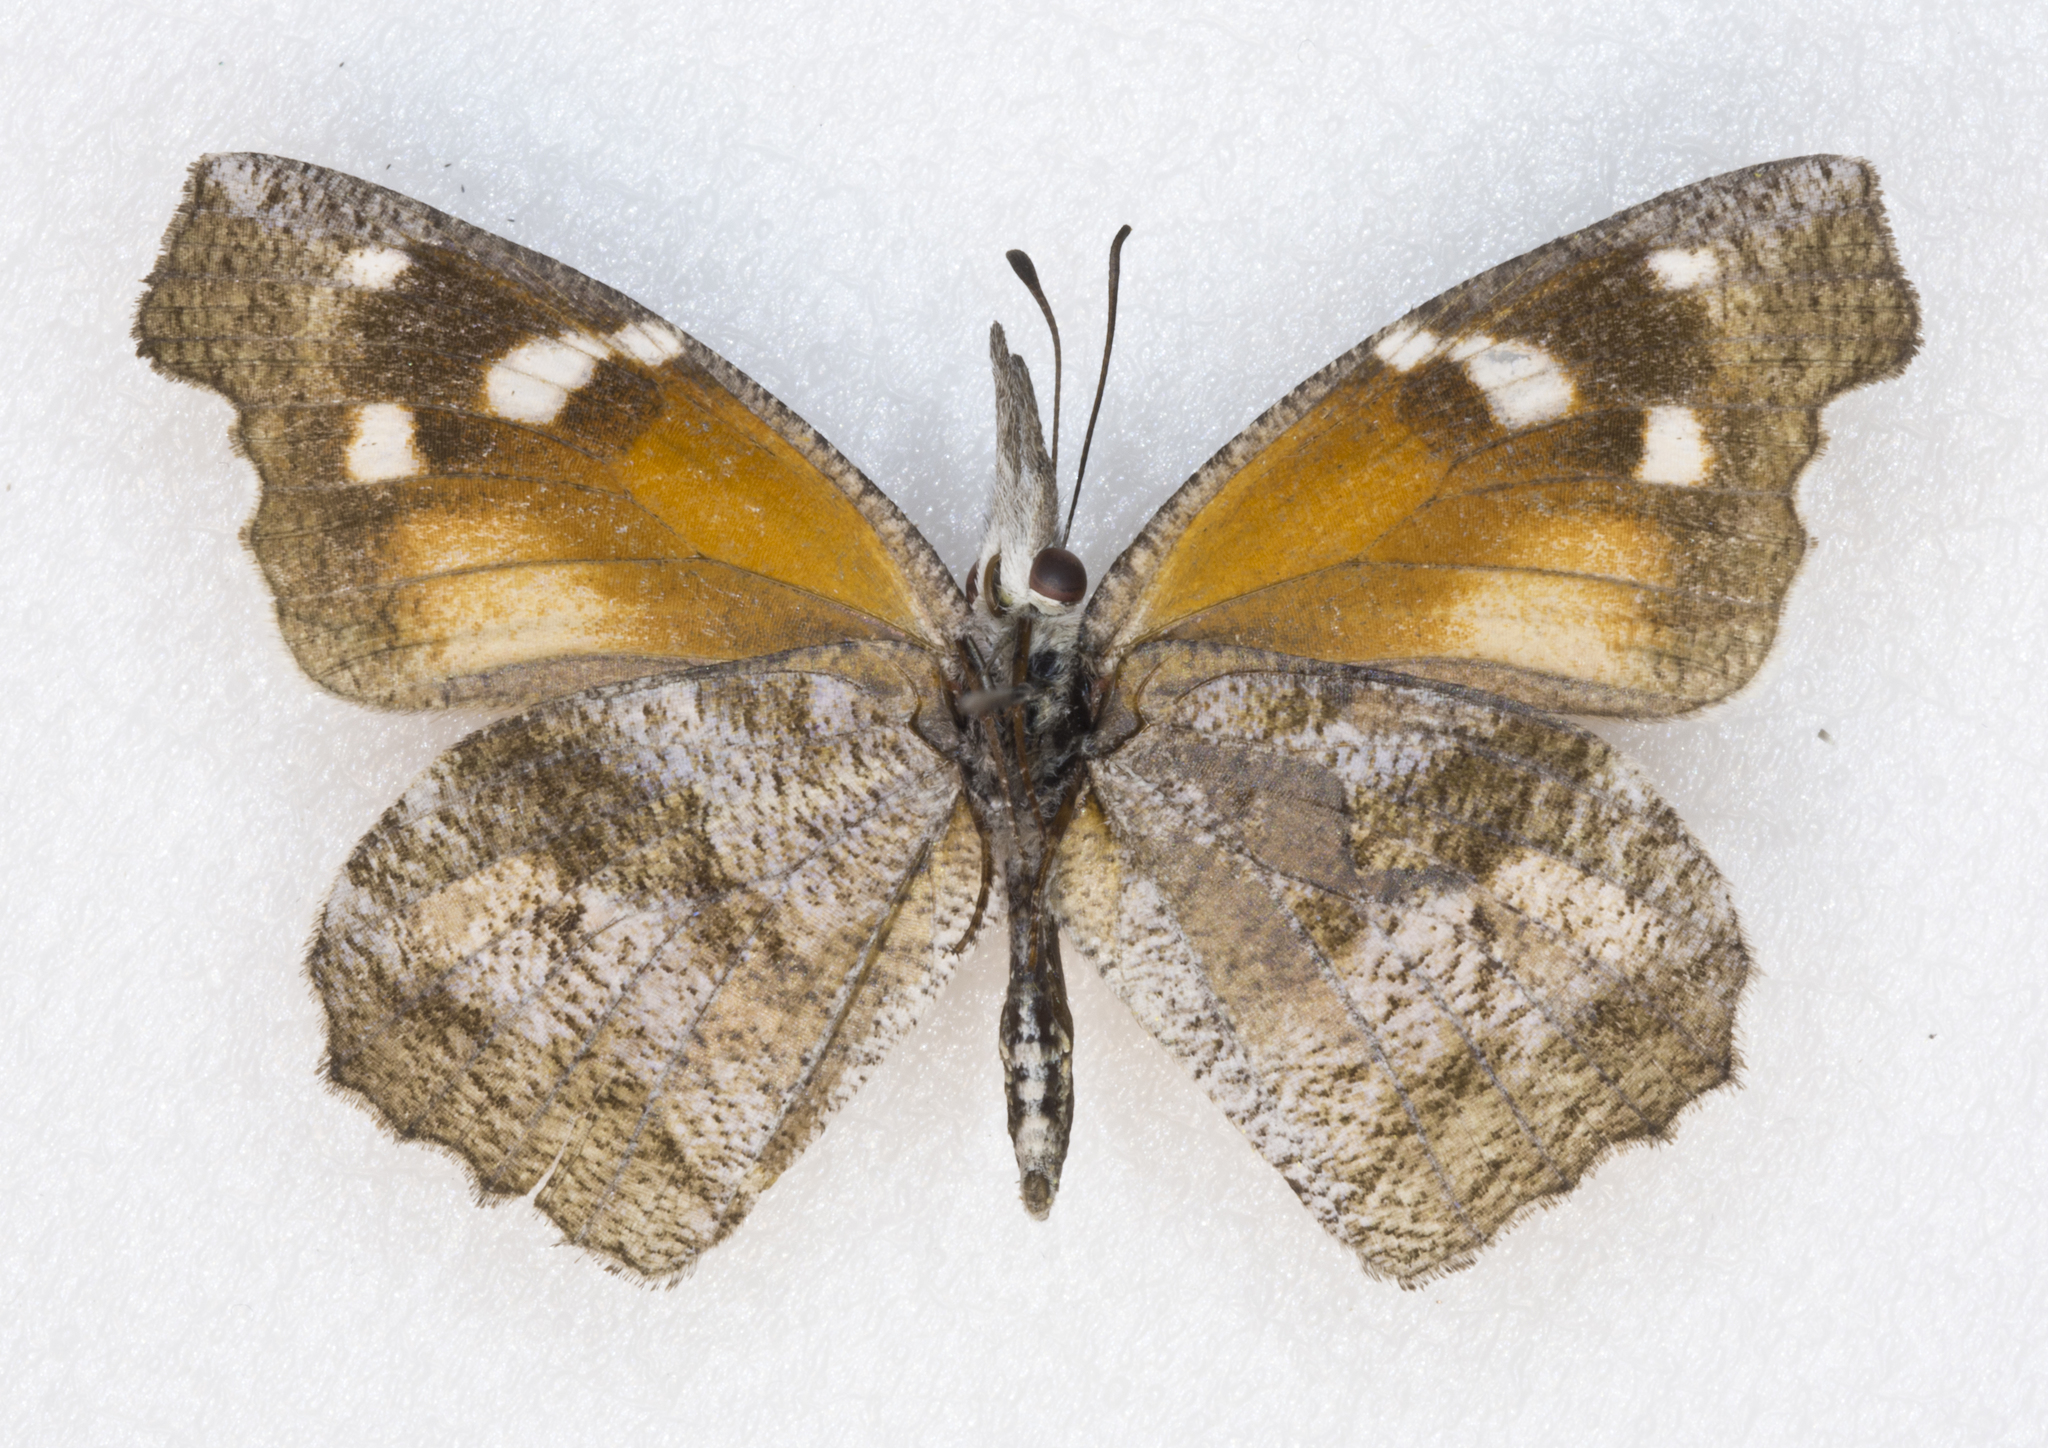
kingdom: Animalia
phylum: Arthropoda
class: Insecta
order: Lepidoptera
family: Nymphalidae
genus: Libytheana
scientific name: Libytheana carinenta
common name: American snout
